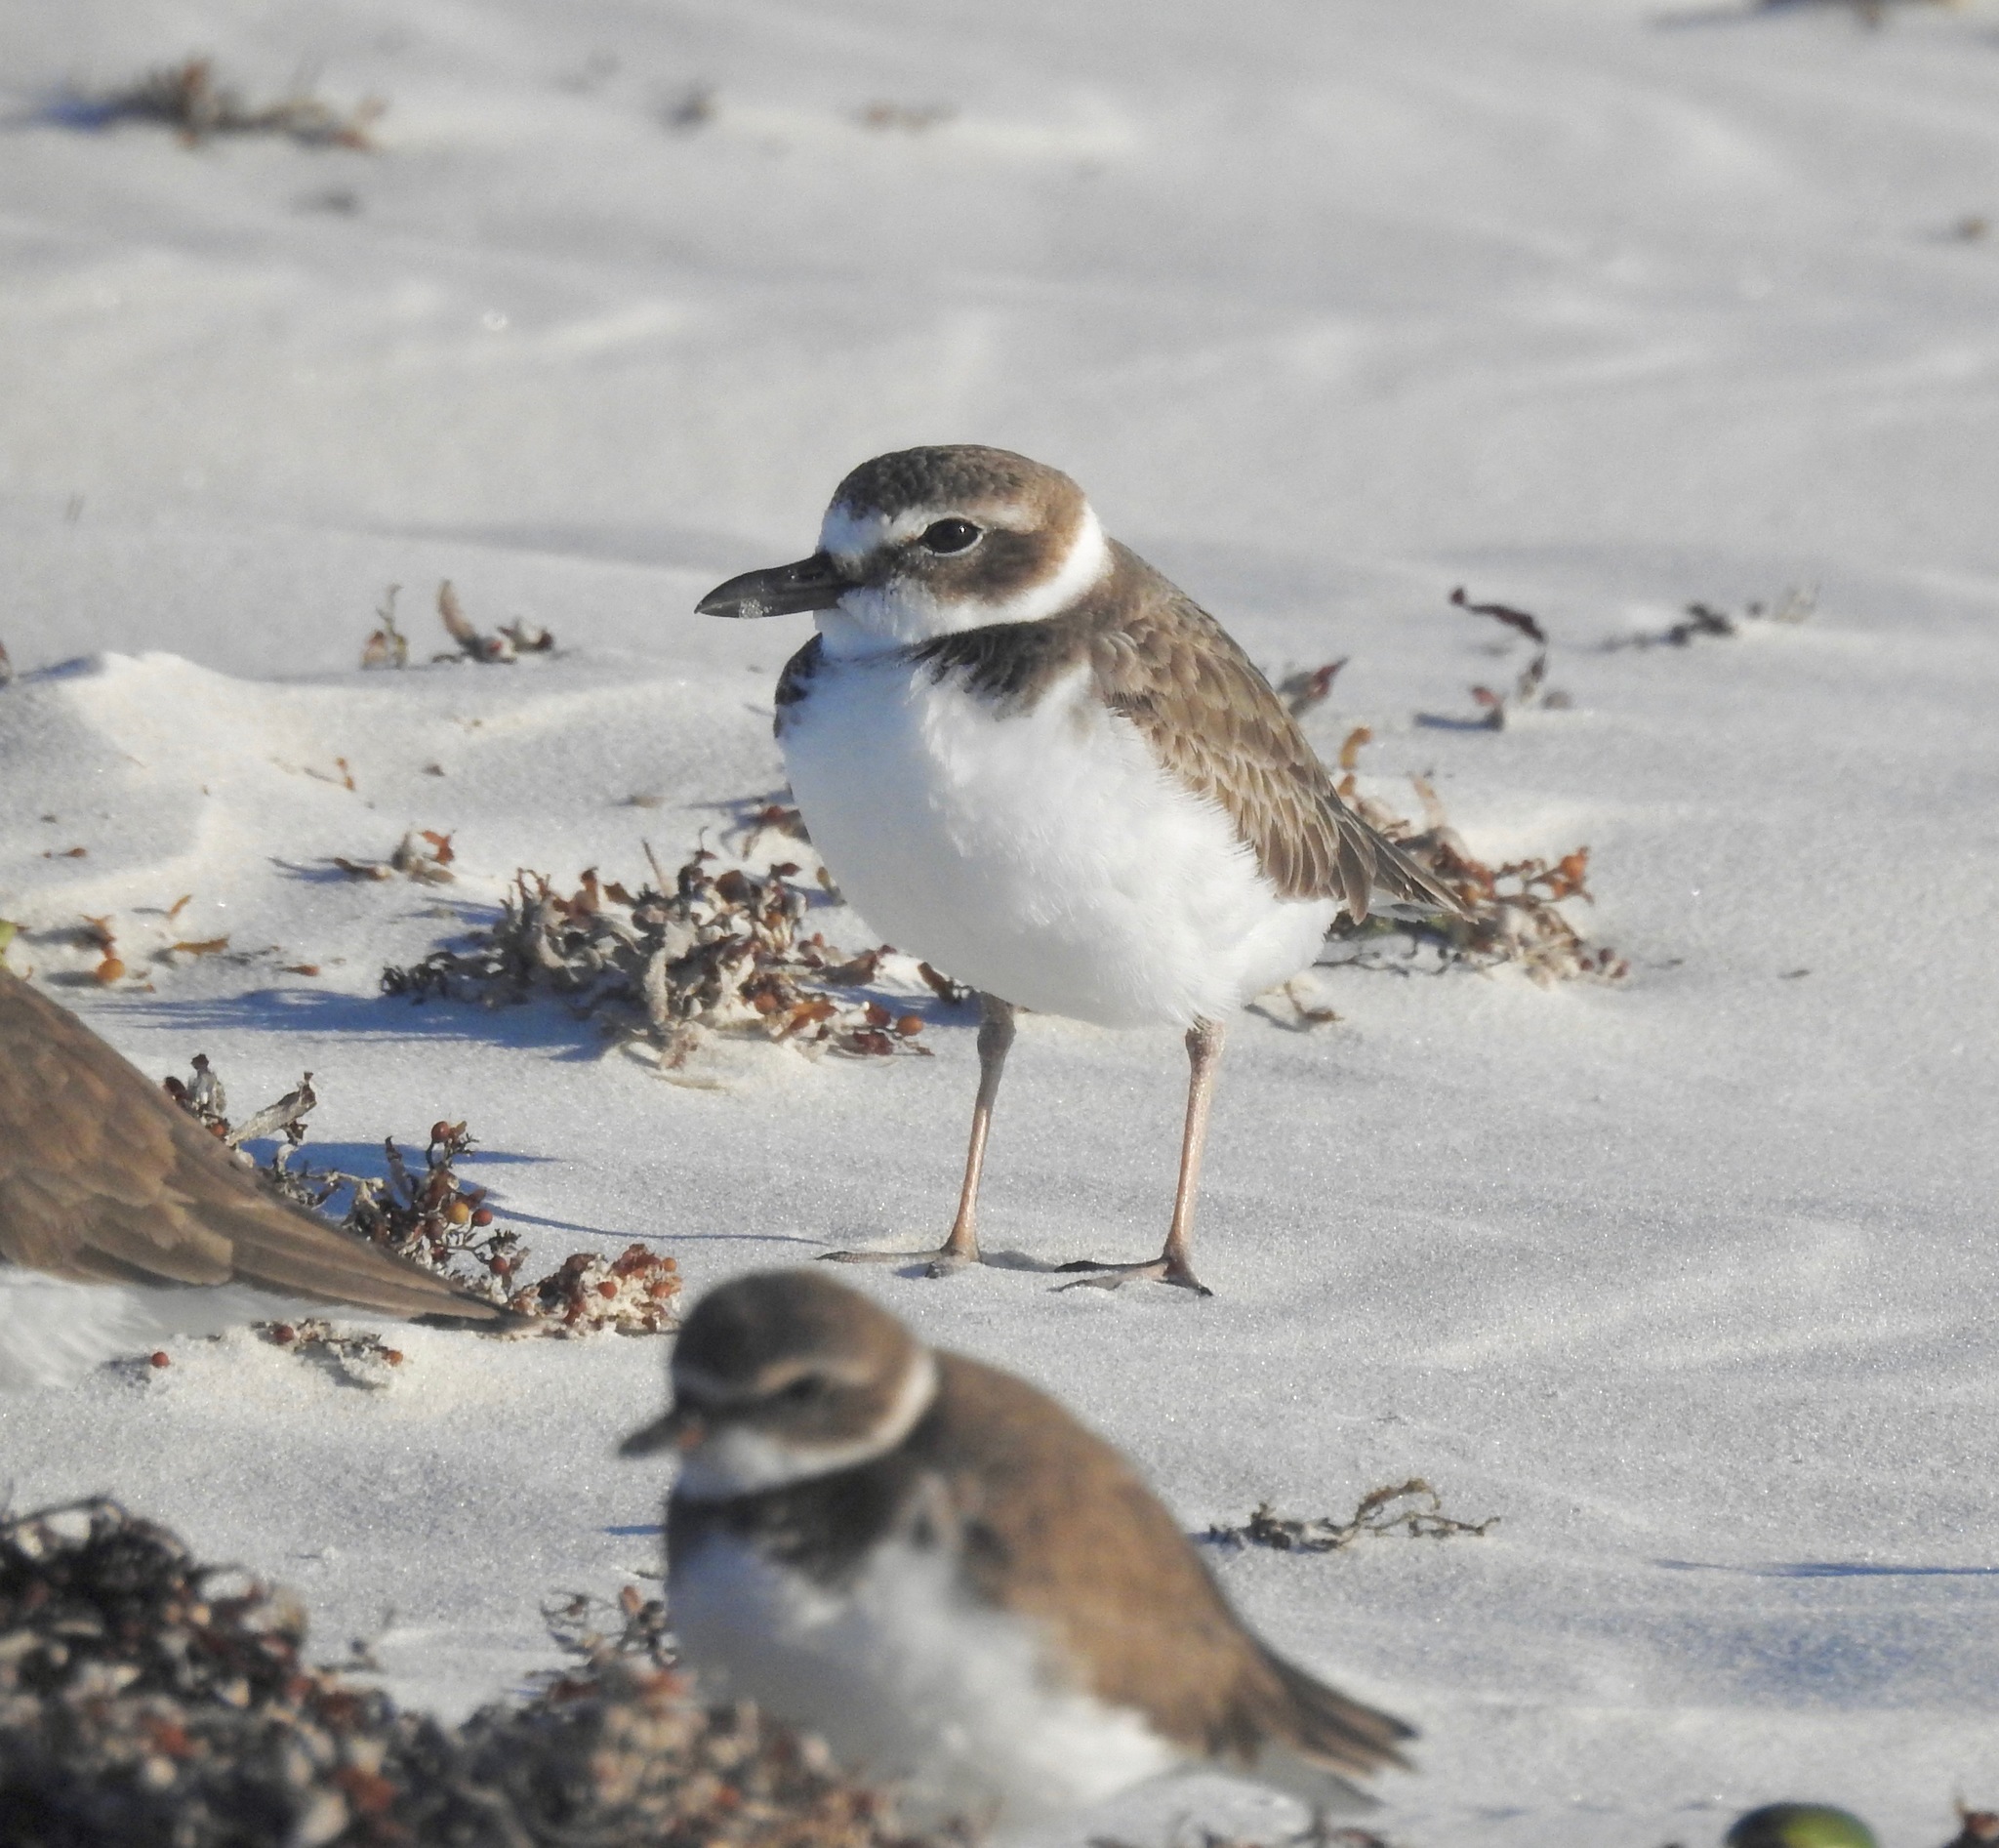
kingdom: Animalia
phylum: Chordata
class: Aves
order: Charadriiformes
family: Charadriidae
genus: Anarhynchus
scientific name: Anarhynchus
